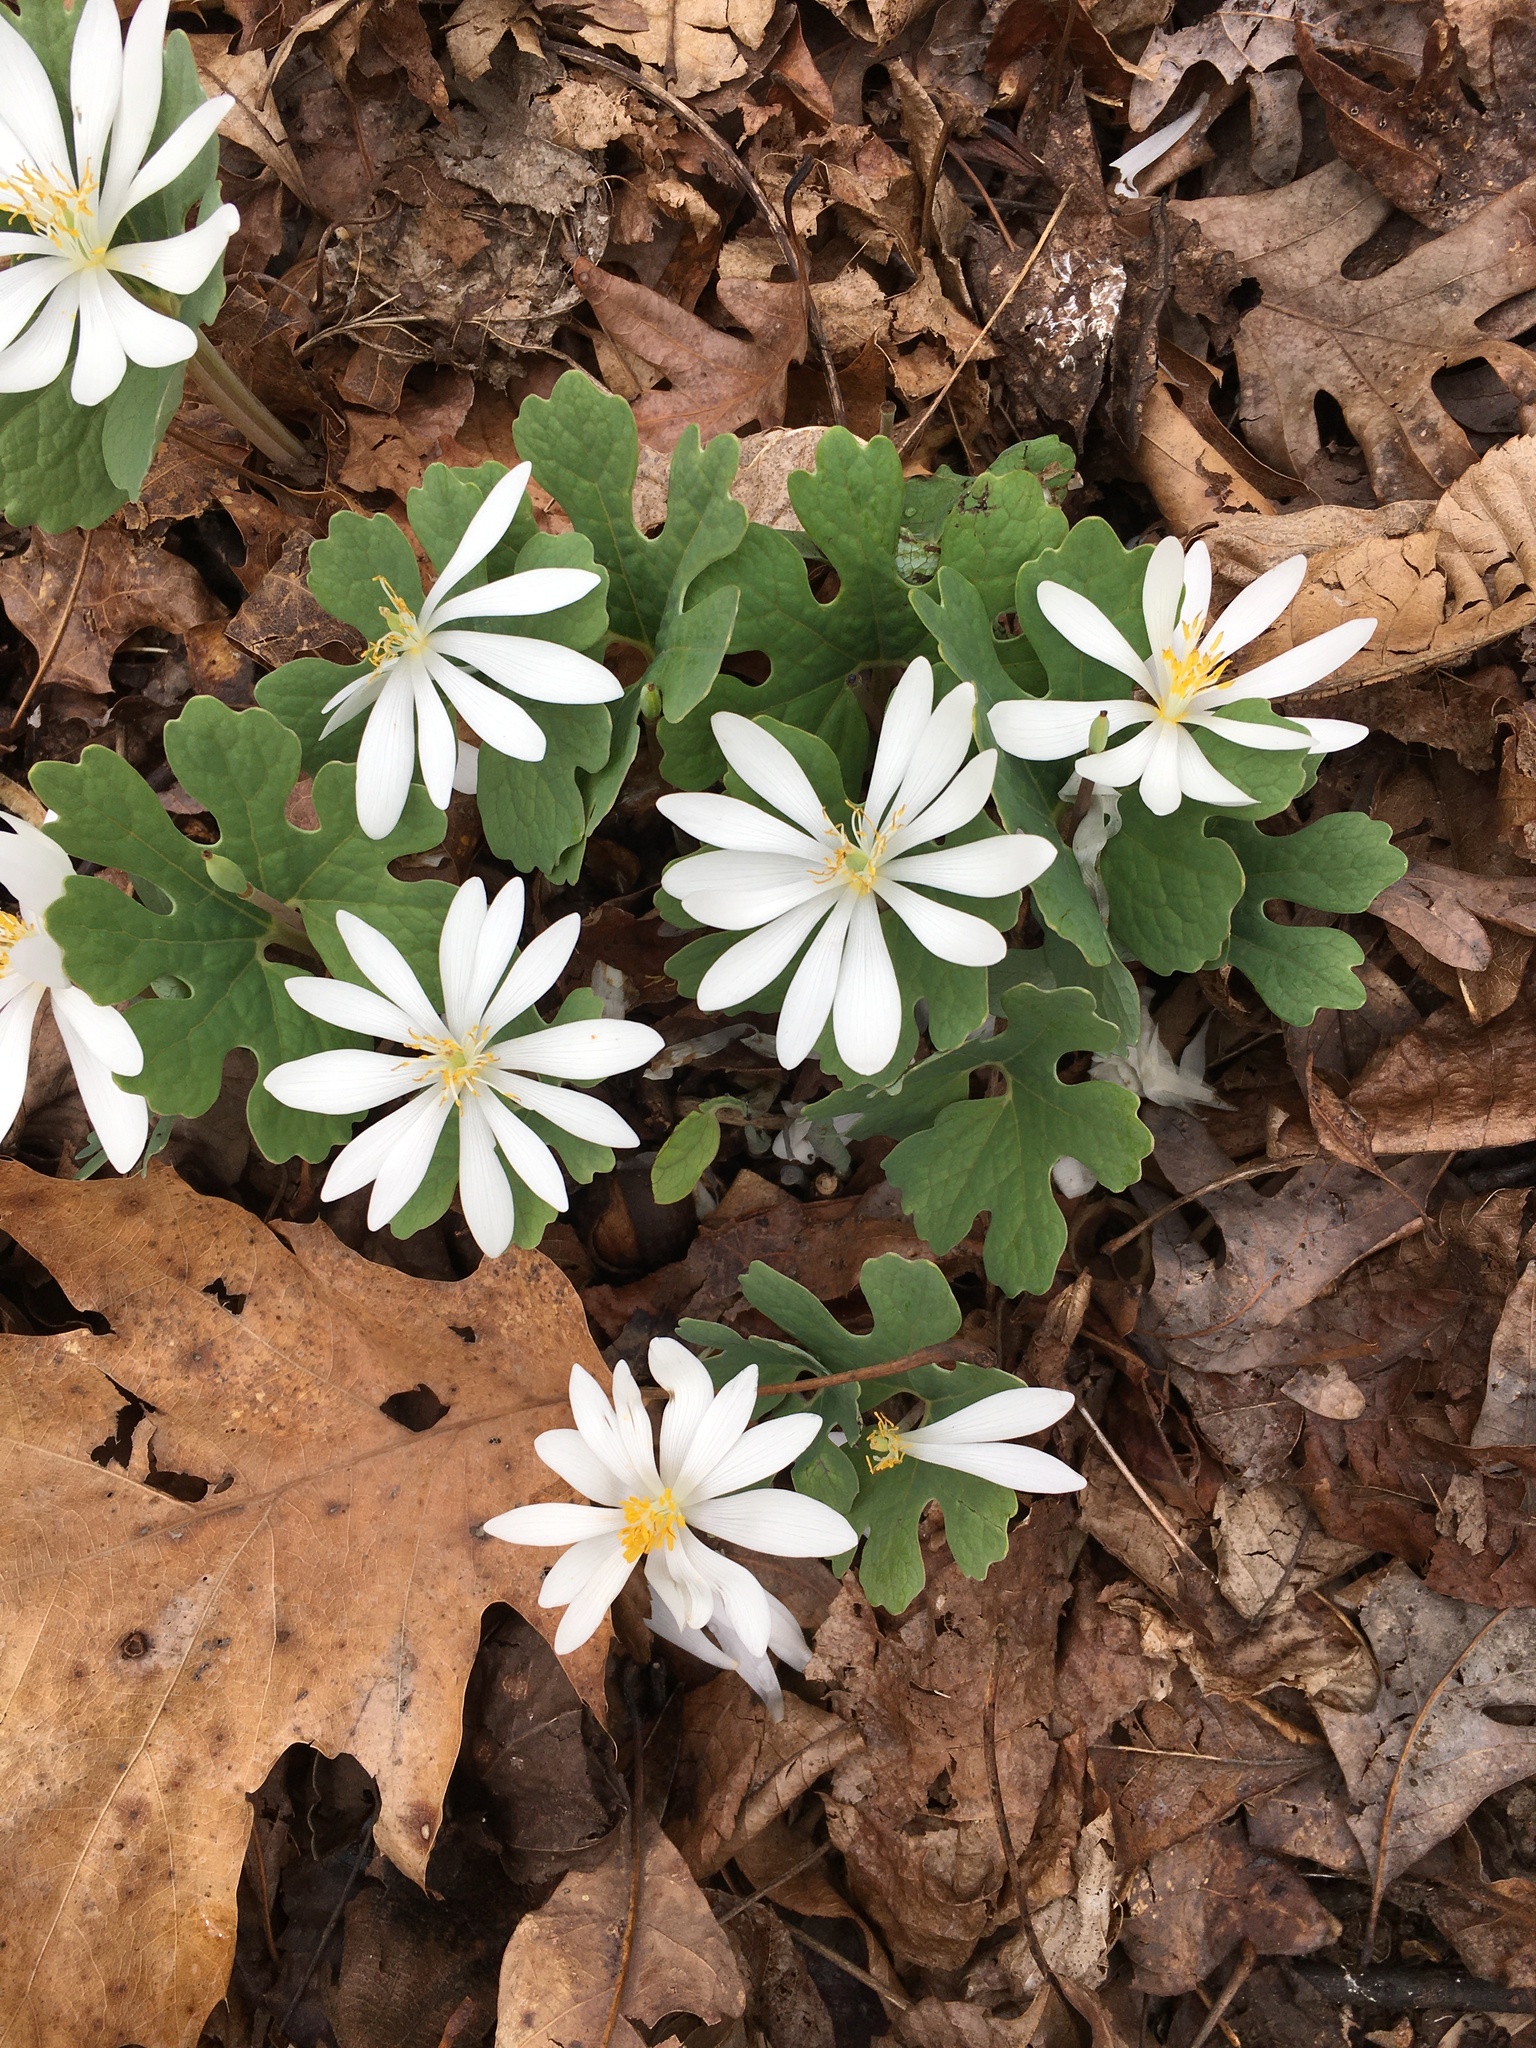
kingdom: Plantae
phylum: Tracheophyta
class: Magnoliopsida
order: Ranunculales
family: Papaveraceae
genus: Sanguinaria
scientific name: Sanguinaria canadensis
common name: Bloodroot
